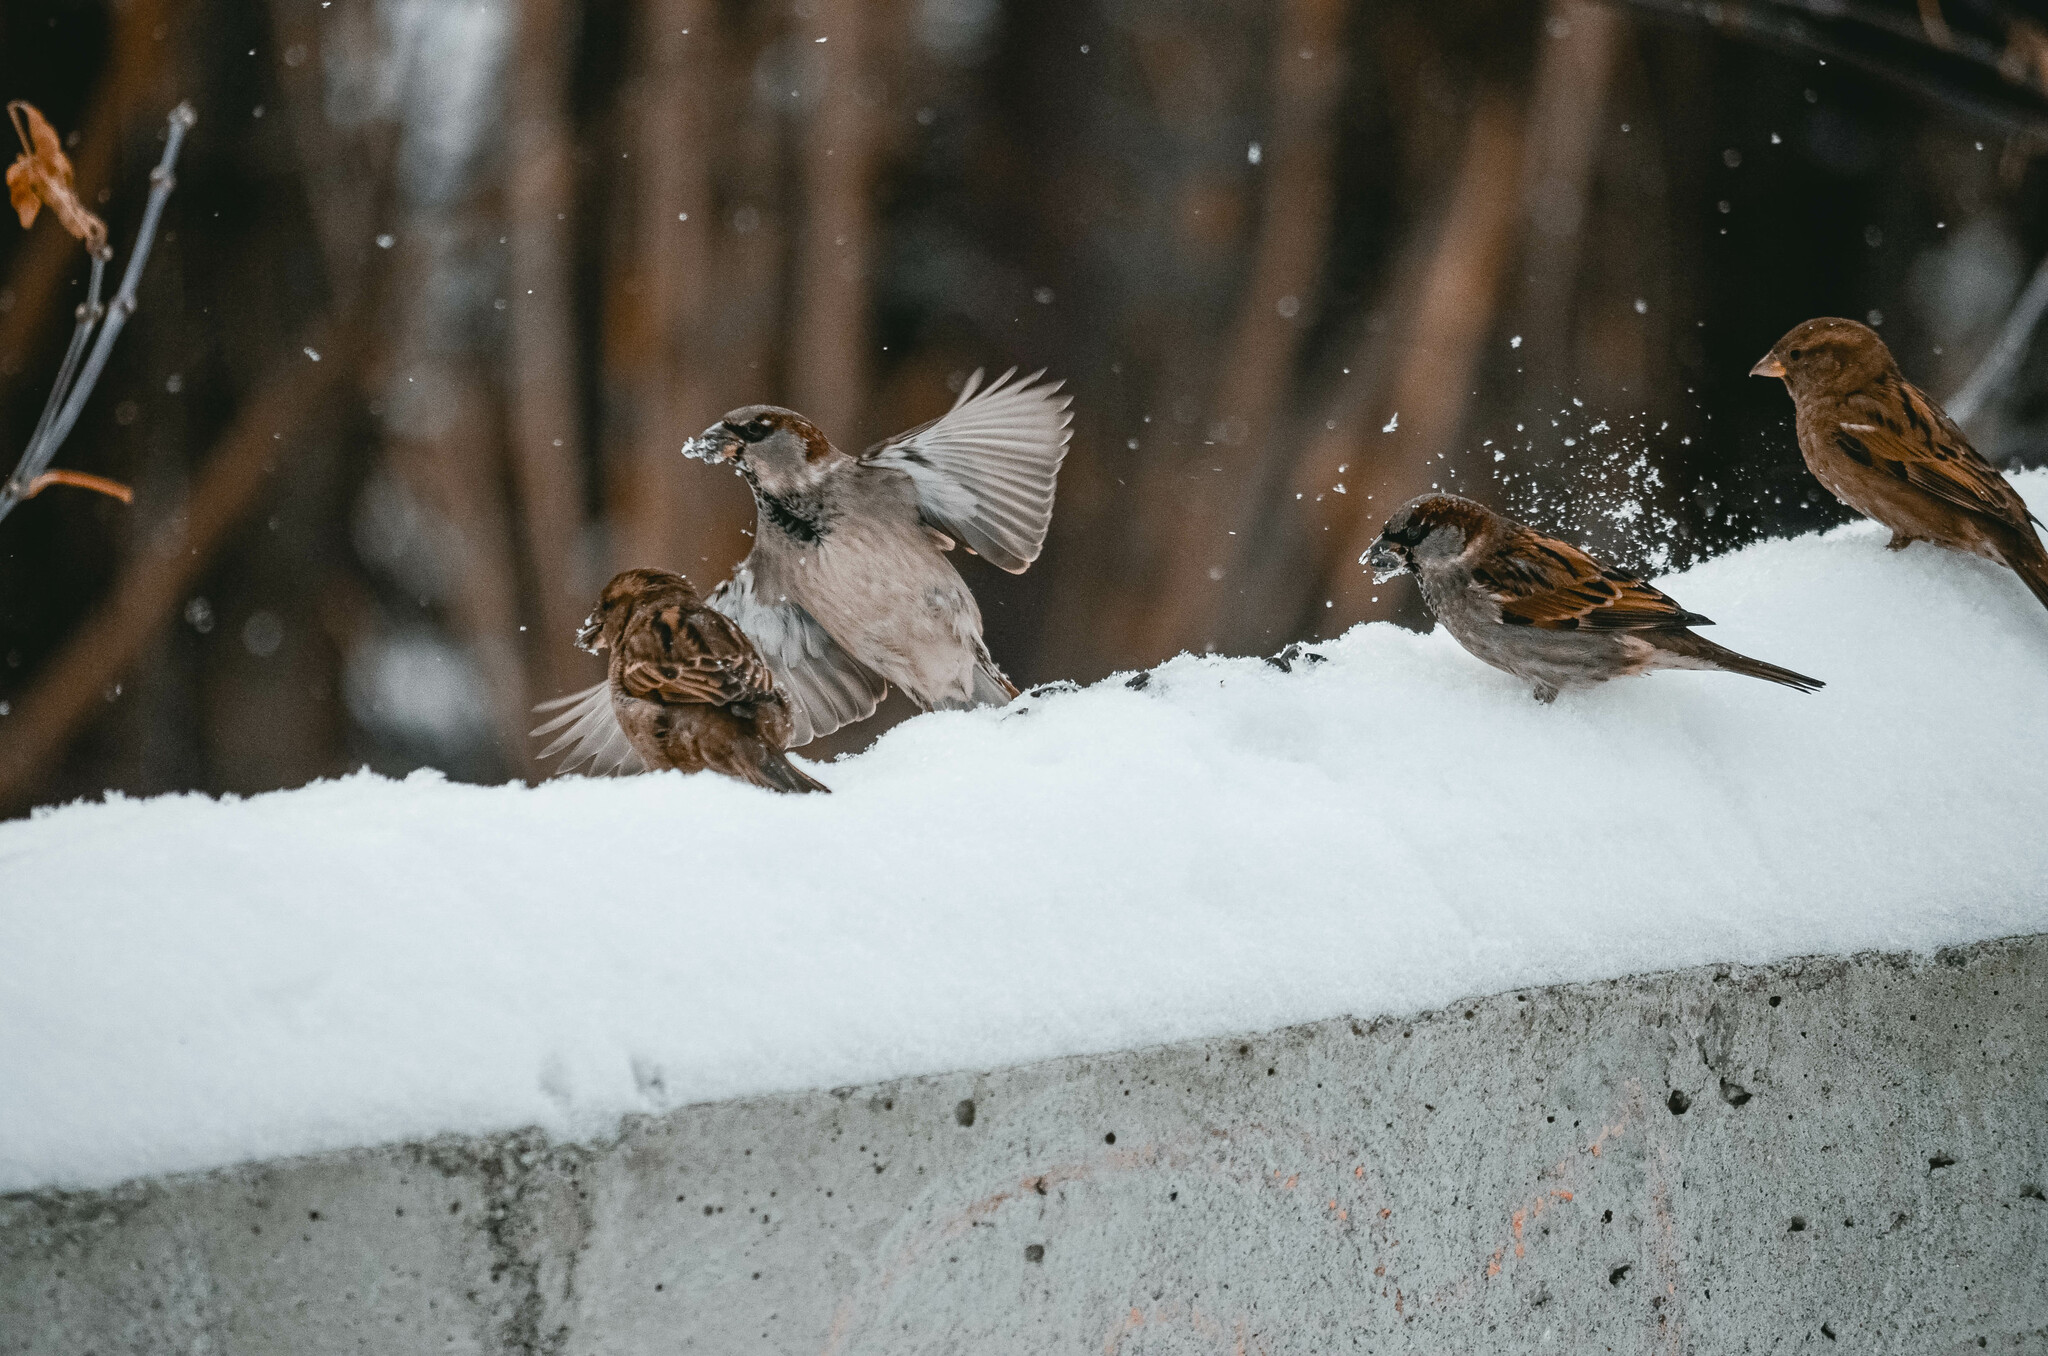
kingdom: Animalia
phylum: Chordata
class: Aves
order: Passeriformes
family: Passeridae
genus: Passer
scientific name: Passer domesticus
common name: House sparrow
